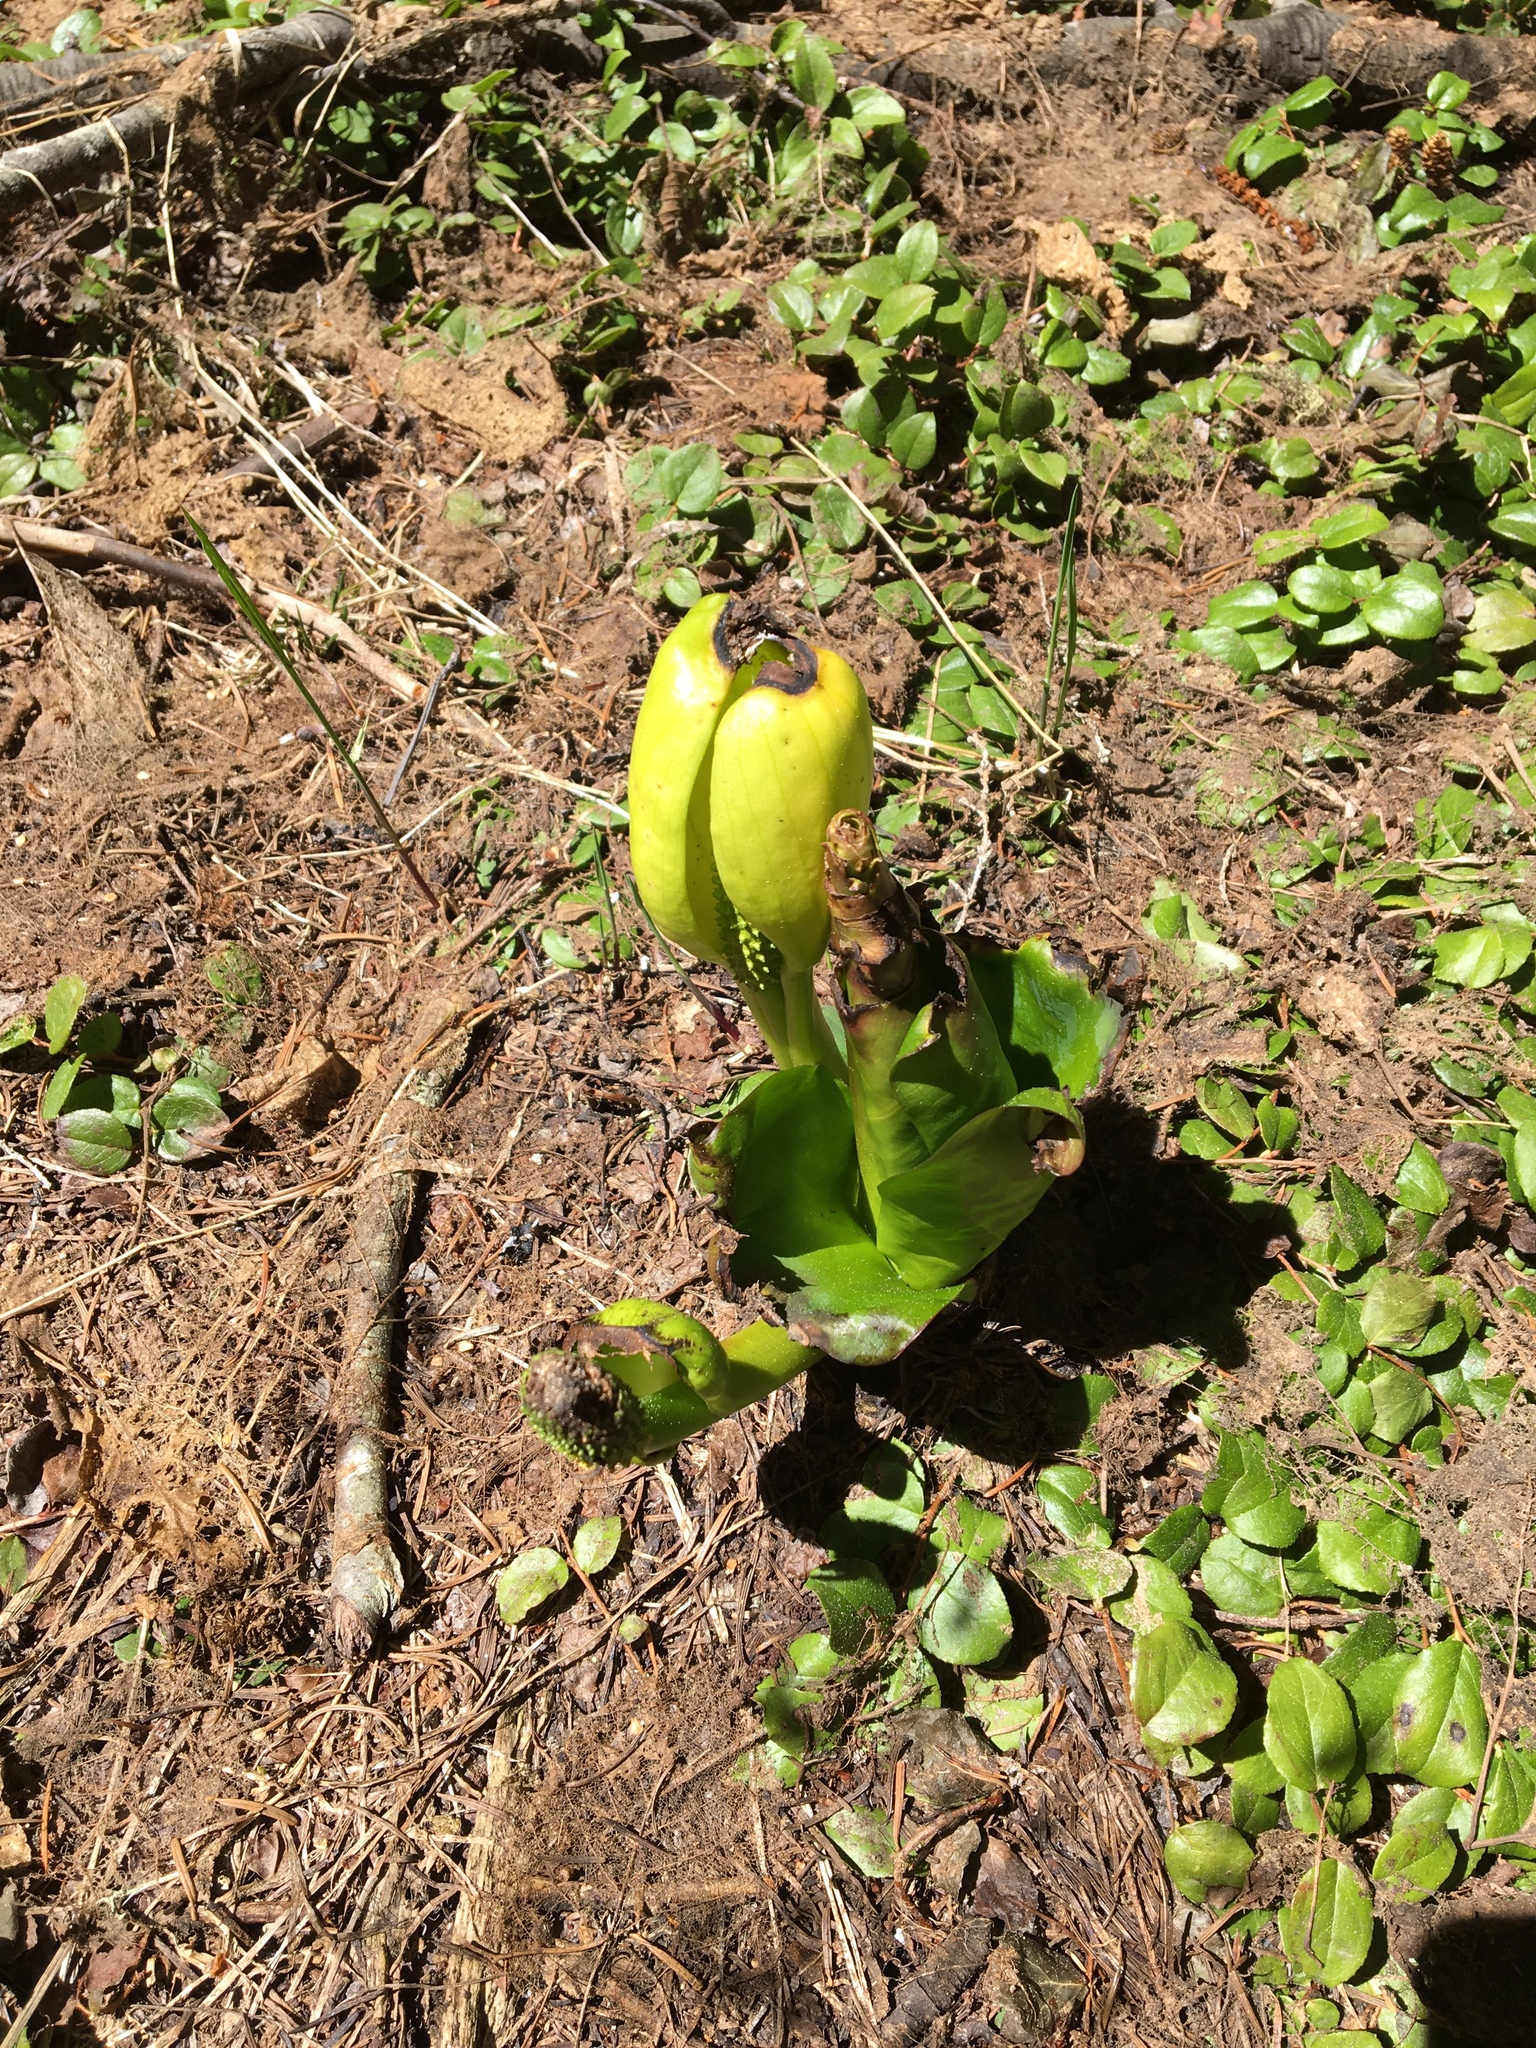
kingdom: Plantae
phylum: Tracheophyta
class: Liliopsida
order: Alismatales
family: Araceae
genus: Lysichiton
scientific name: Lysichiton americanus
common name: American skunk cabbage
